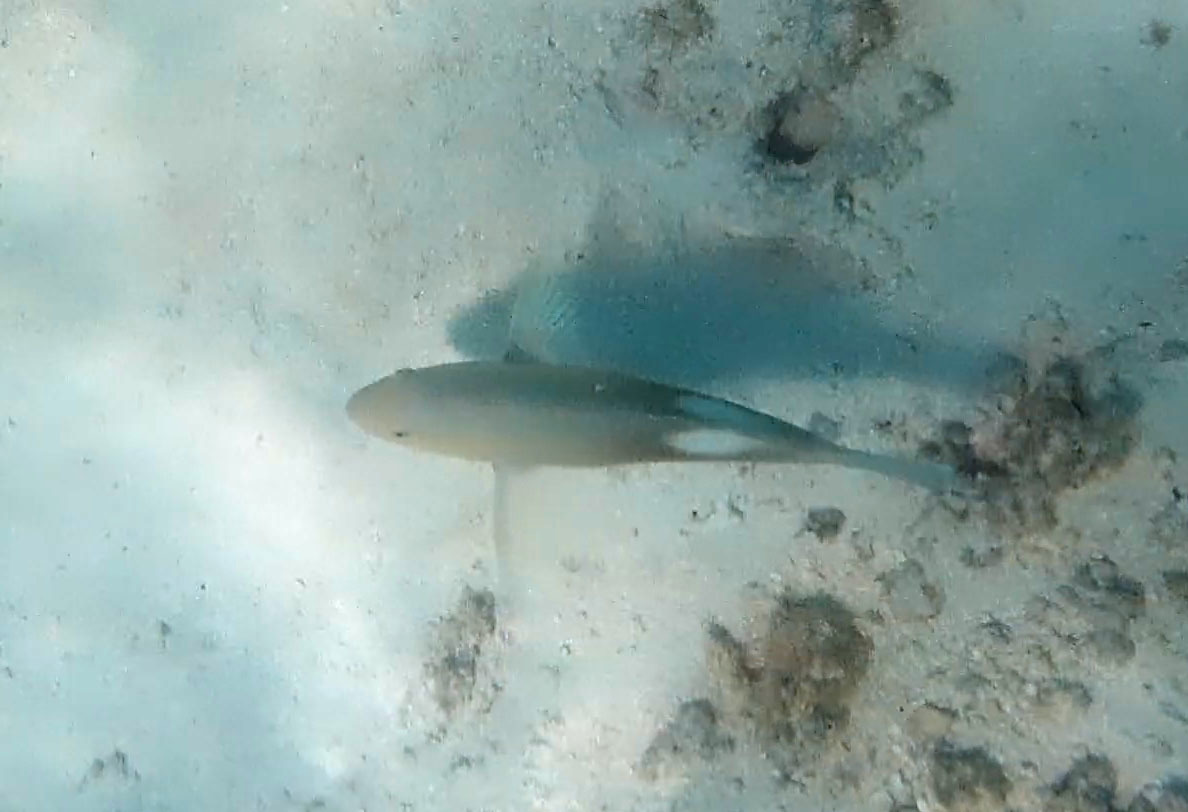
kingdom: Animalia
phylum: Chordata
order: Perciformes
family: Labridae
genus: Choerodon
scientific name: Choerodon cyanodus
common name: Blue tuskfish
